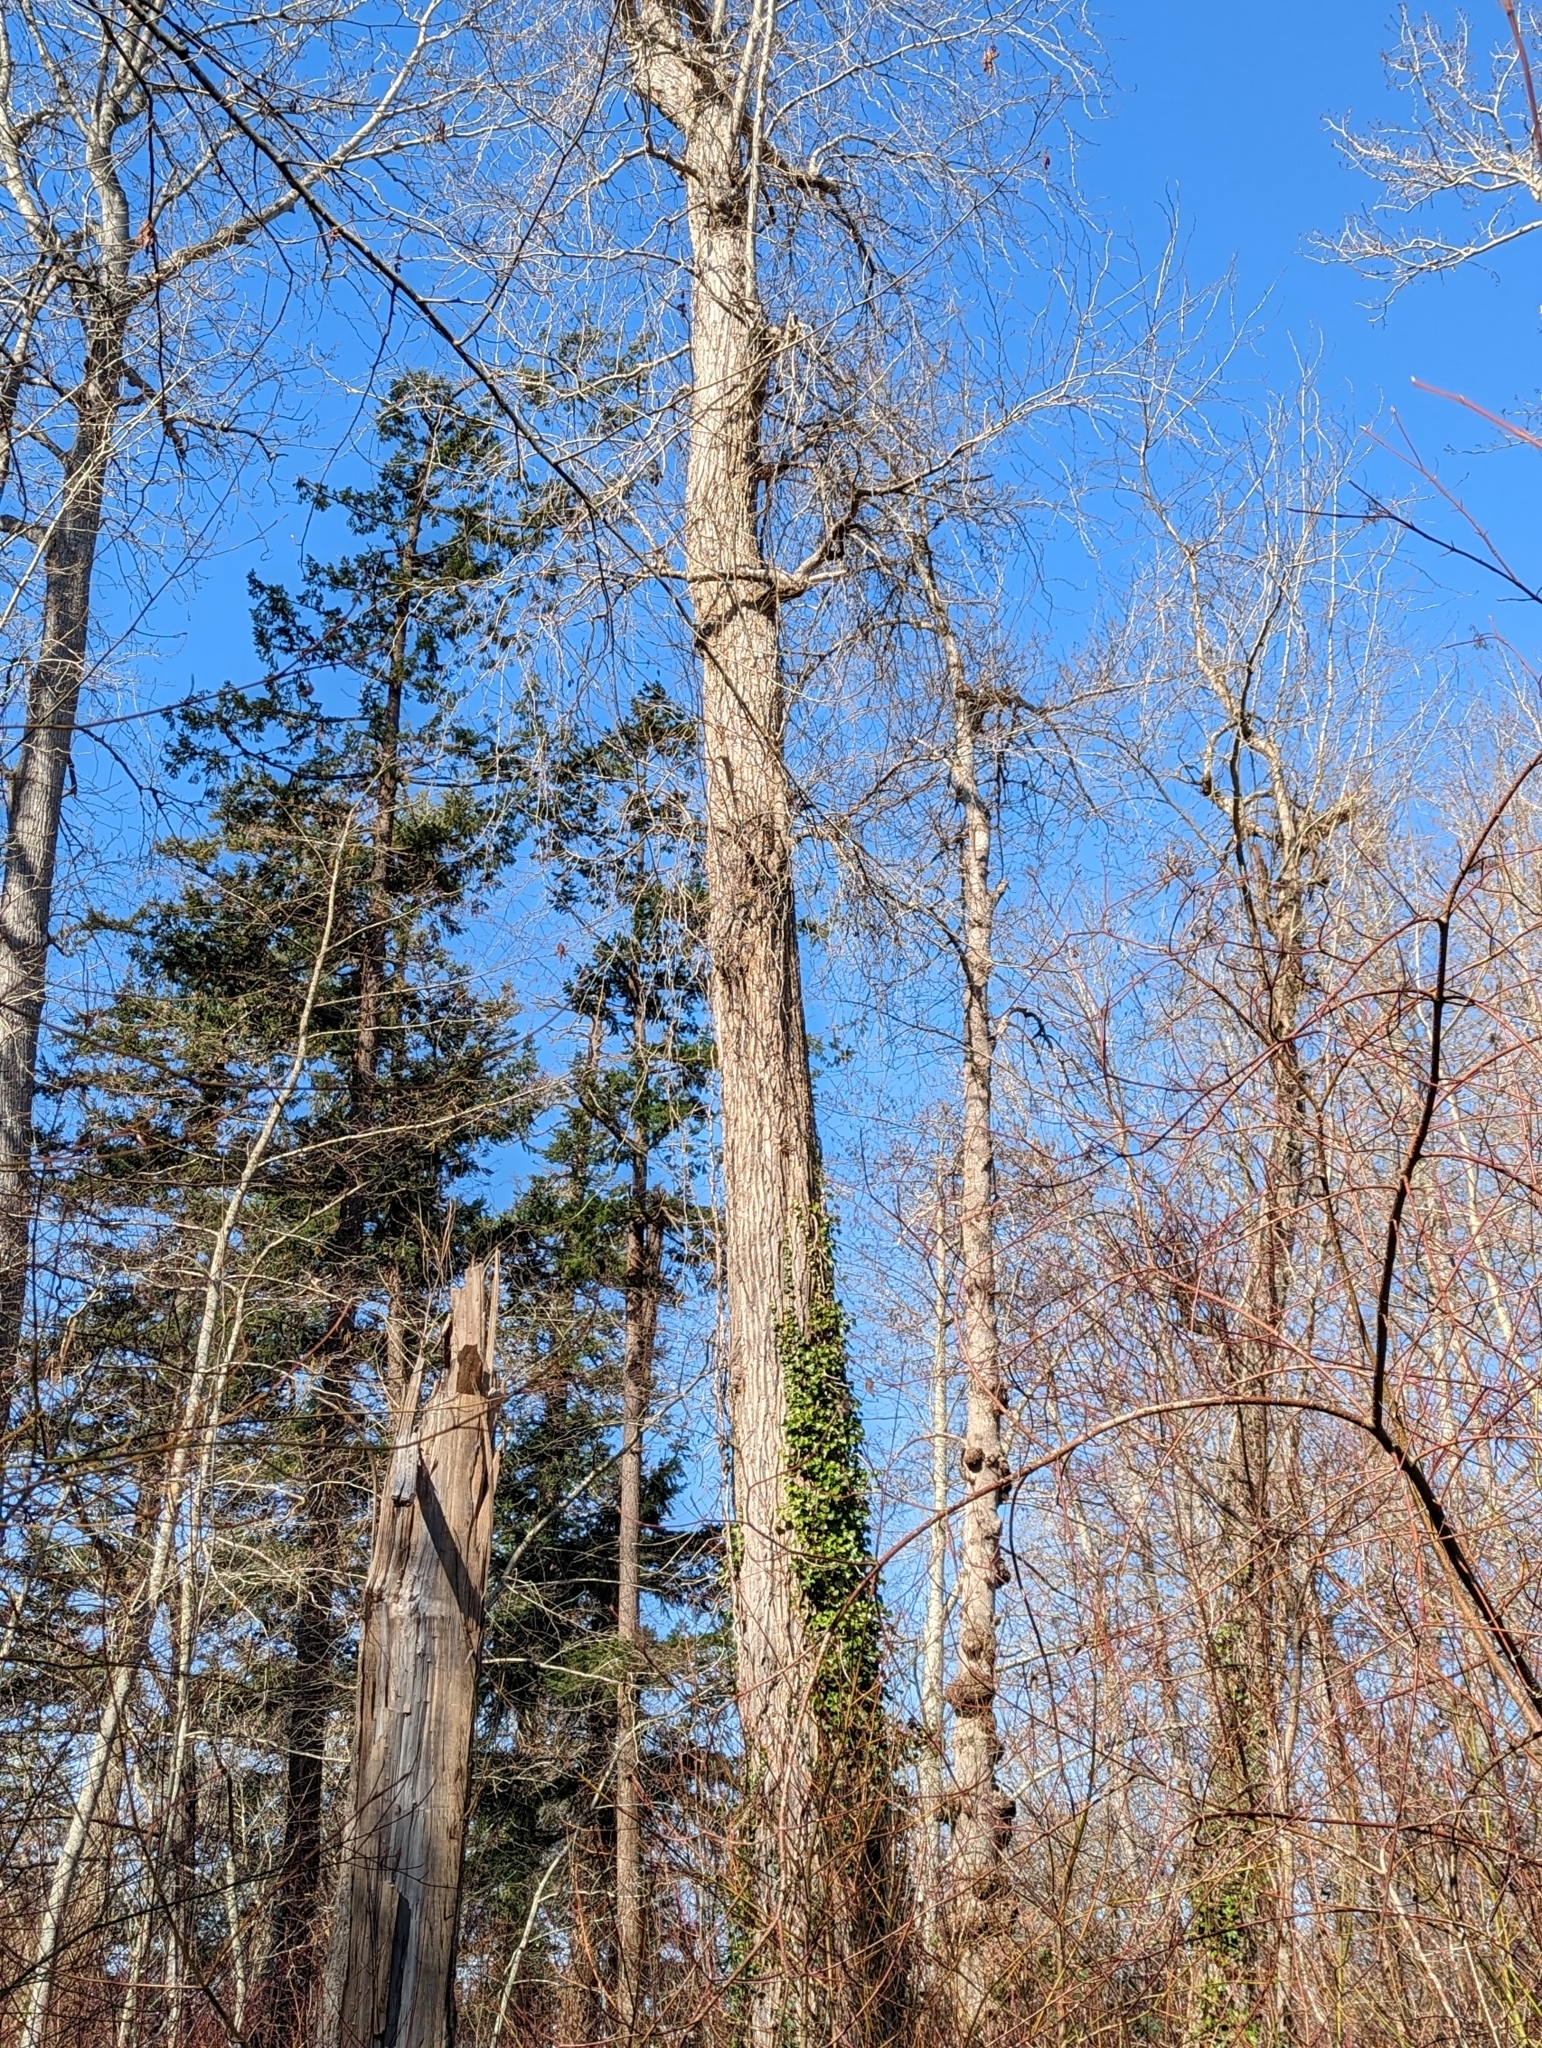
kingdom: Plantae
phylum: Tracheophyta
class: Magnoliopsida
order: Malpighiales
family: Salicaceae
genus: Populus
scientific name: Populus trichocarpa
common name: Black cottonwood
